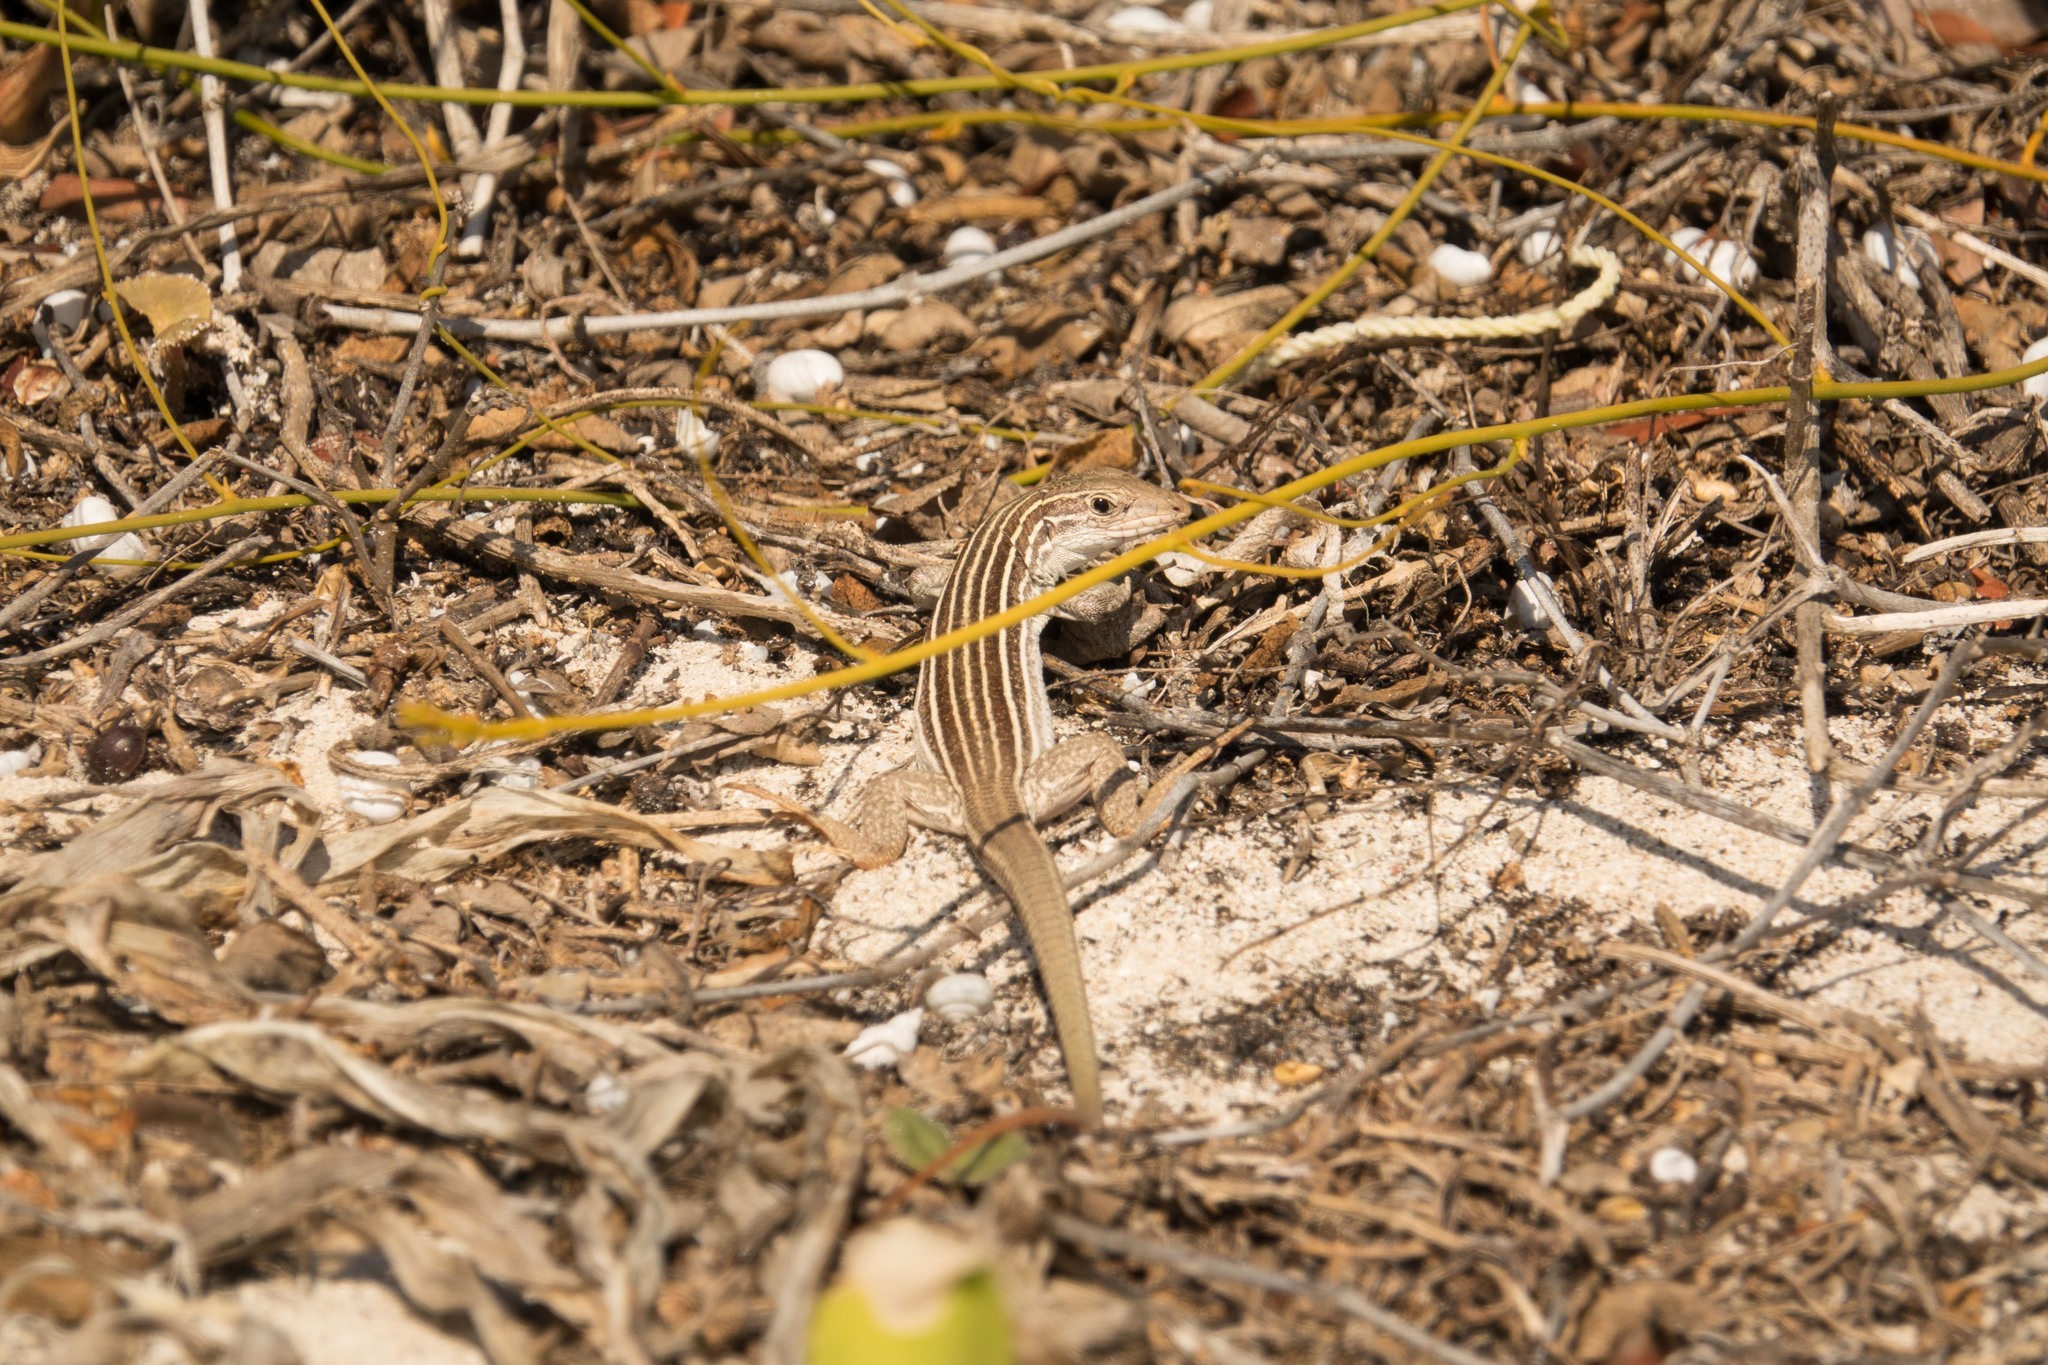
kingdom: Animalia
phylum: Chordata
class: Squamata
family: Teiidae
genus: Aspidoscelis
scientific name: Aspidoscelis angusticeps
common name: Yucatan whiptail
